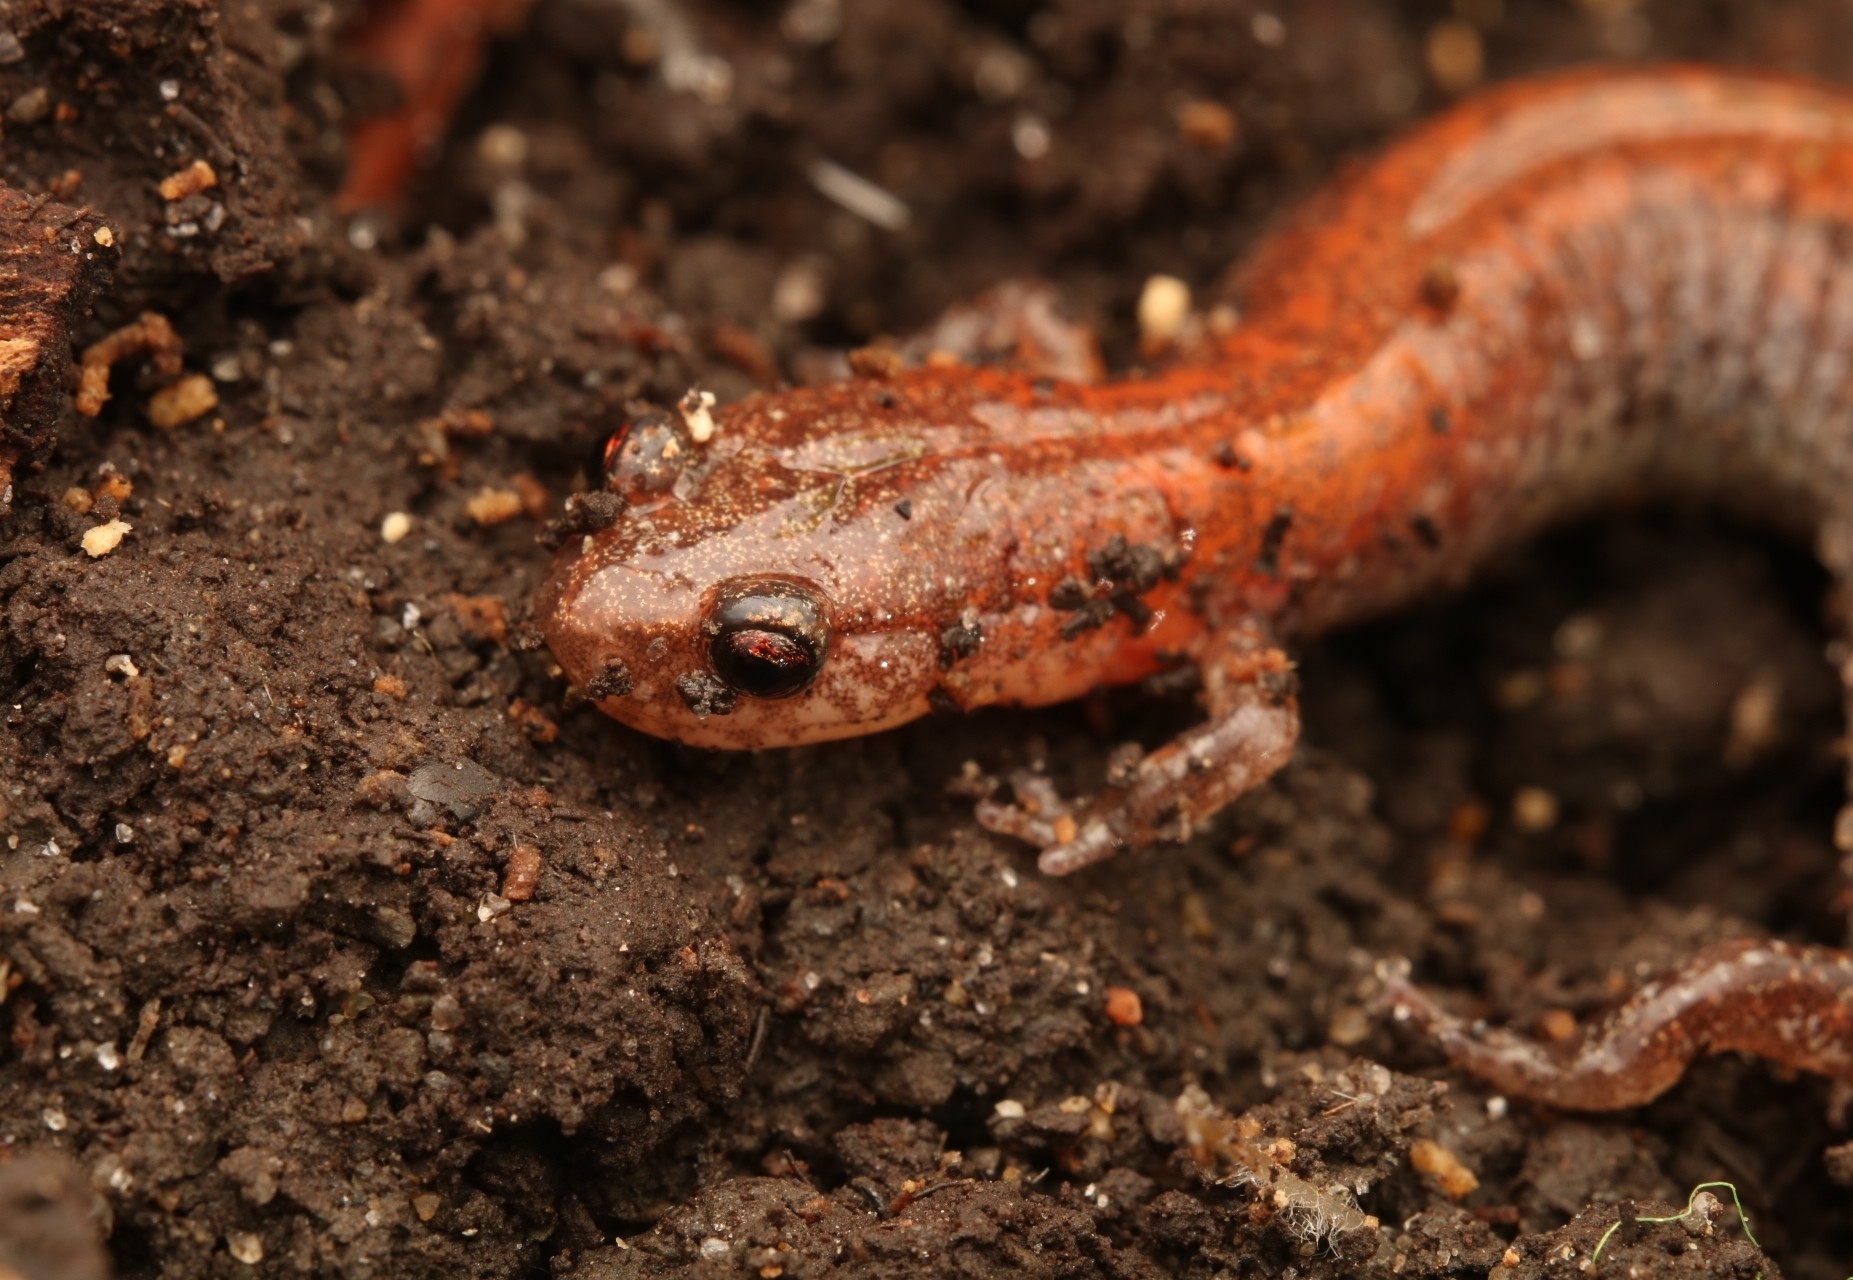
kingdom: Animalia
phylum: Chordata
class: Amphibia
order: Caudata
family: Plethodontidae
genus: Plethodon
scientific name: Plethodon cinereus
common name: Redback salamander
